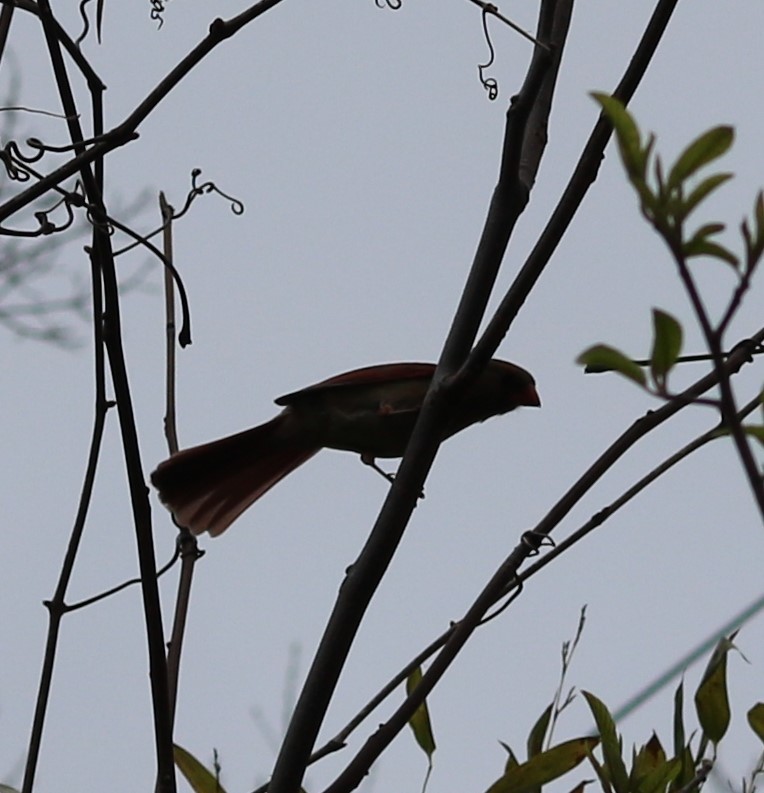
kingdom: Animalia
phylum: Chordata
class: Aves
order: Passeriformes
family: Cardinalidae
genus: Cardinalis
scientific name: Cardinalis cardinalis
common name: Northern cardinal
